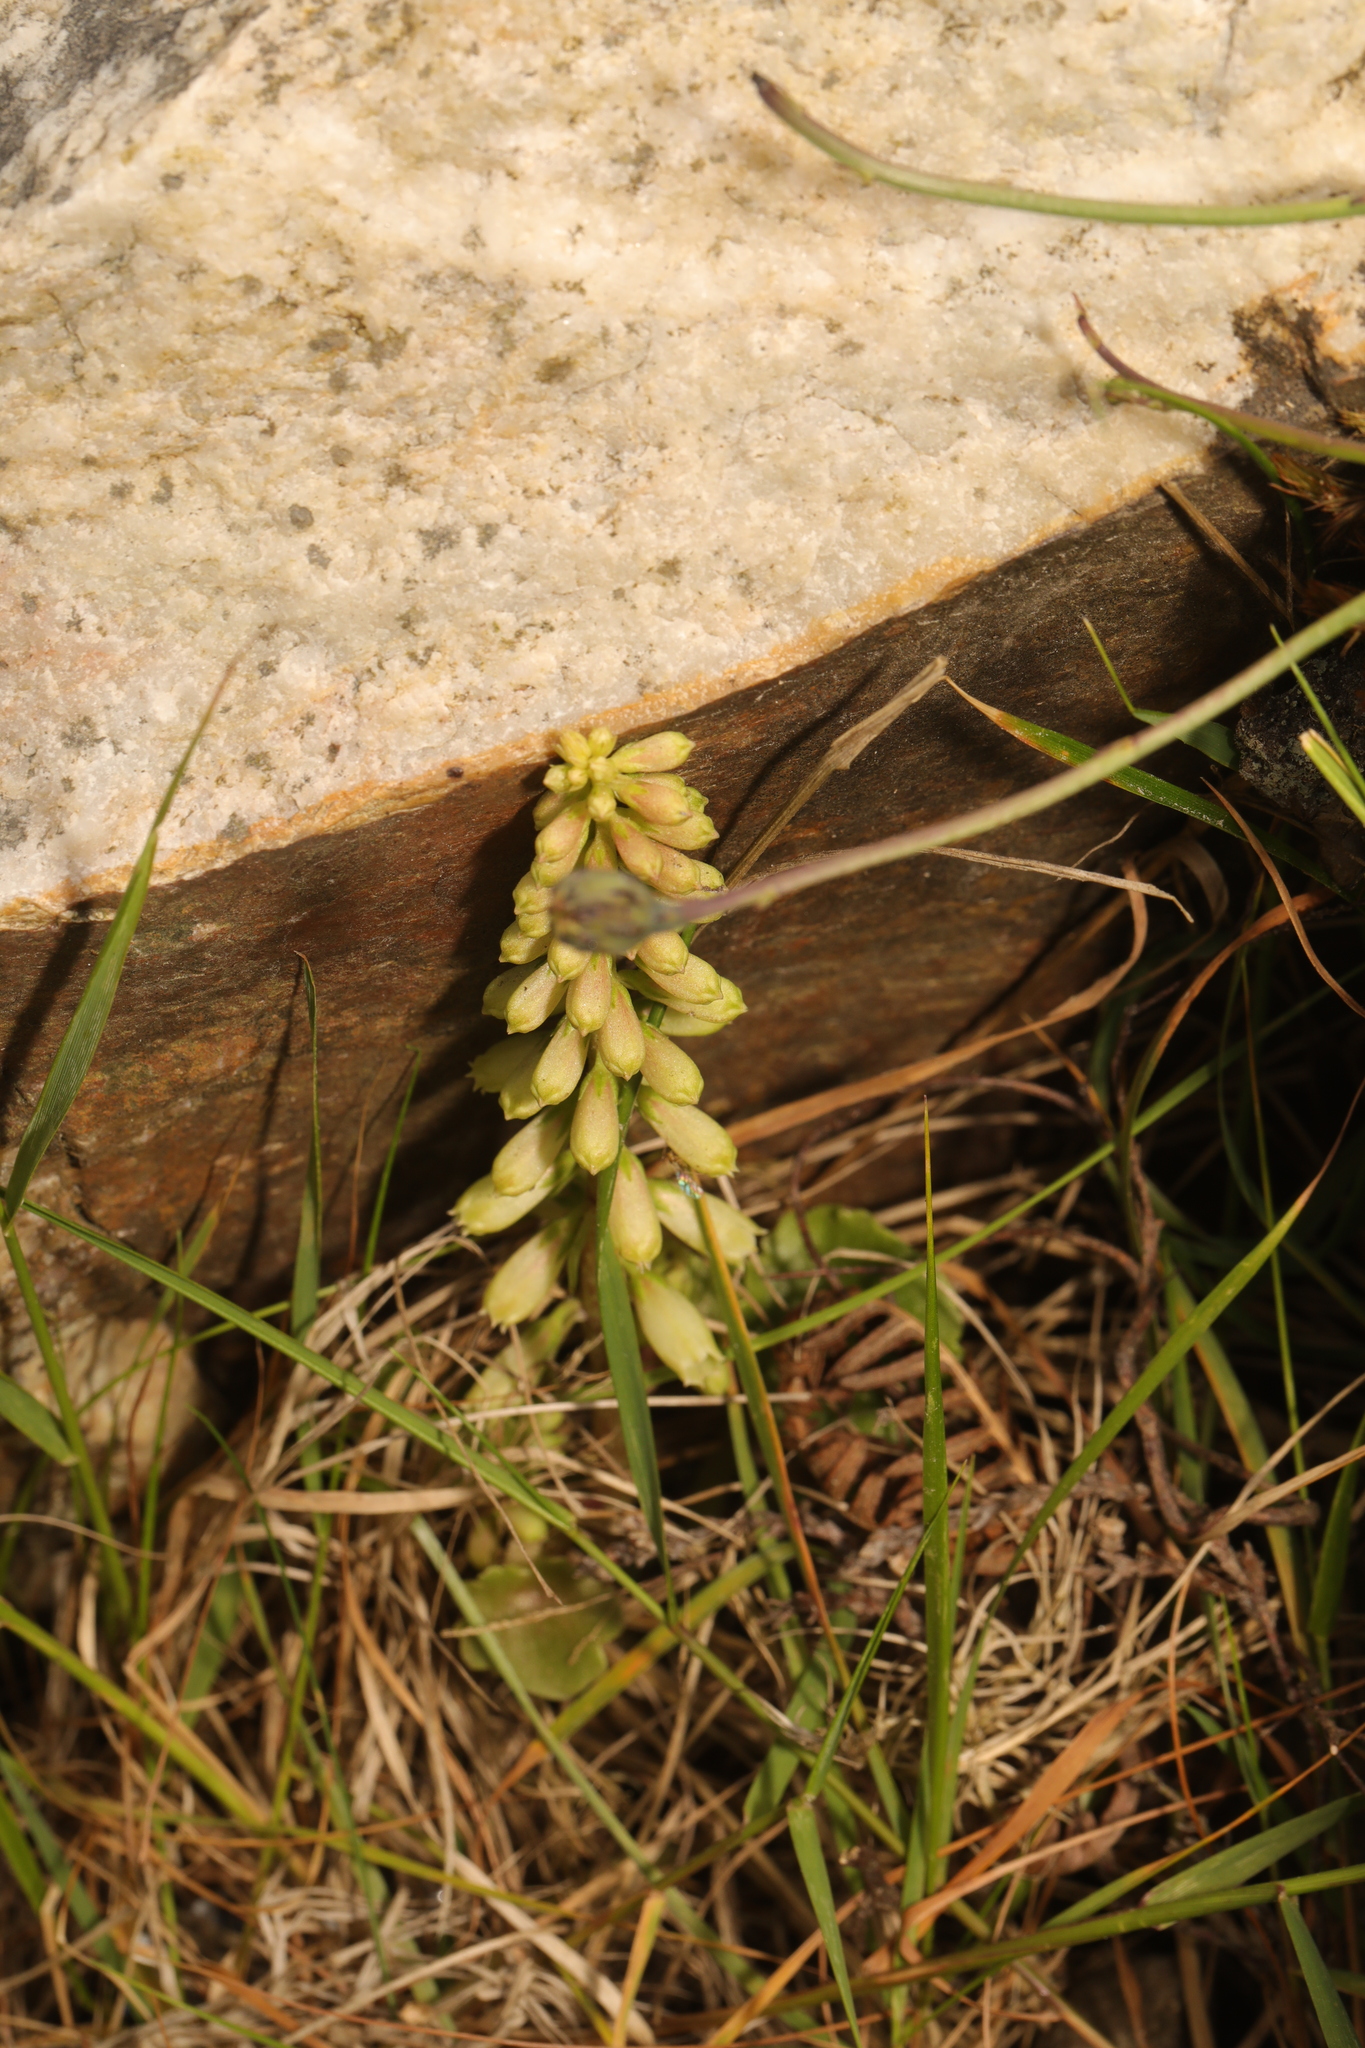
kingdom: Plantae
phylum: Tracheophyta
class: Magnoliopsida
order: Saxifragales
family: Crassulaceae
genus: Umbilicus
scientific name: Umbilicus rupestris
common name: Navelwort
